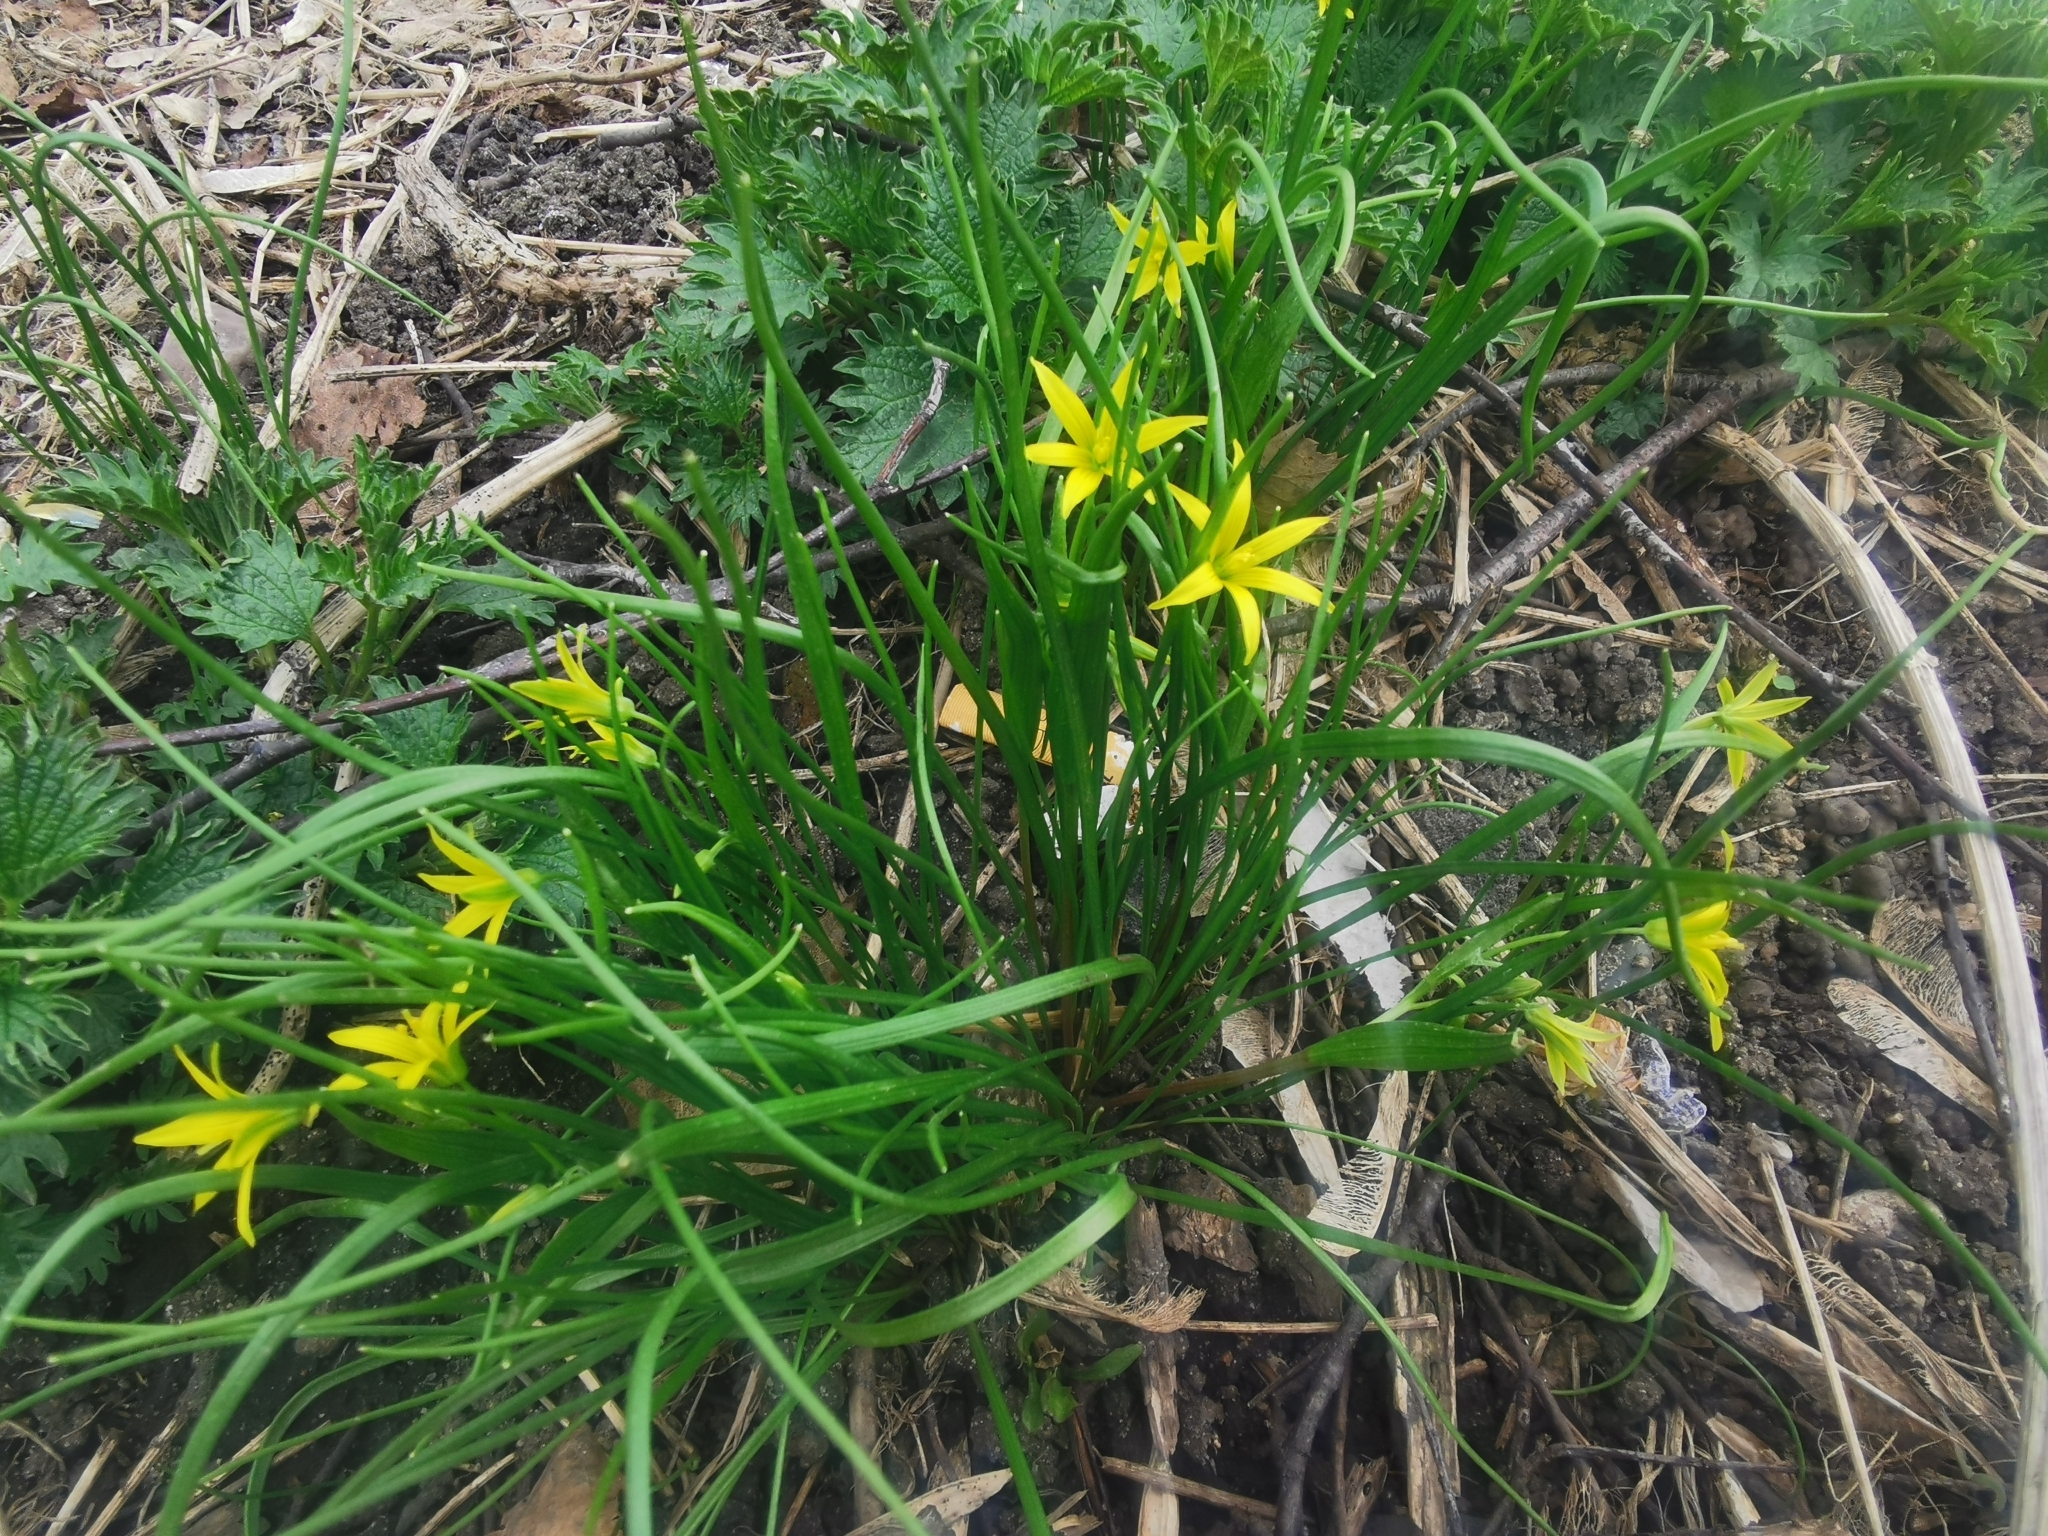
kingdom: Plantae
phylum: Tracheophyta
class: Liliopsida
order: Liliales
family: Liliaceae
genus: Gagea
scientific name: Gagea minima
